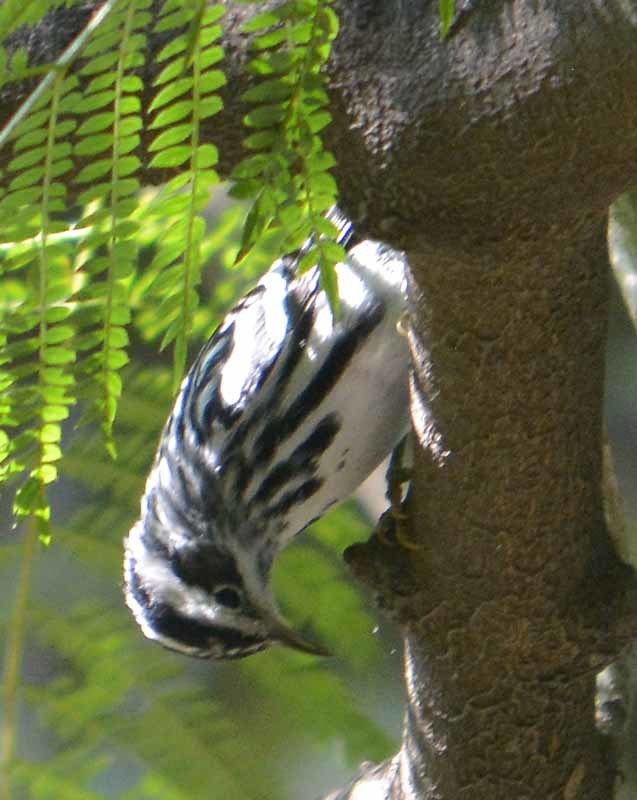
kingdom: Animalia
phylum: Chordata
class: Aves
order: Passeriformes
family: Parulidae
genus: Mniotilta
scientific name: Mniotilta varia
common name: Black-and-white warbler
